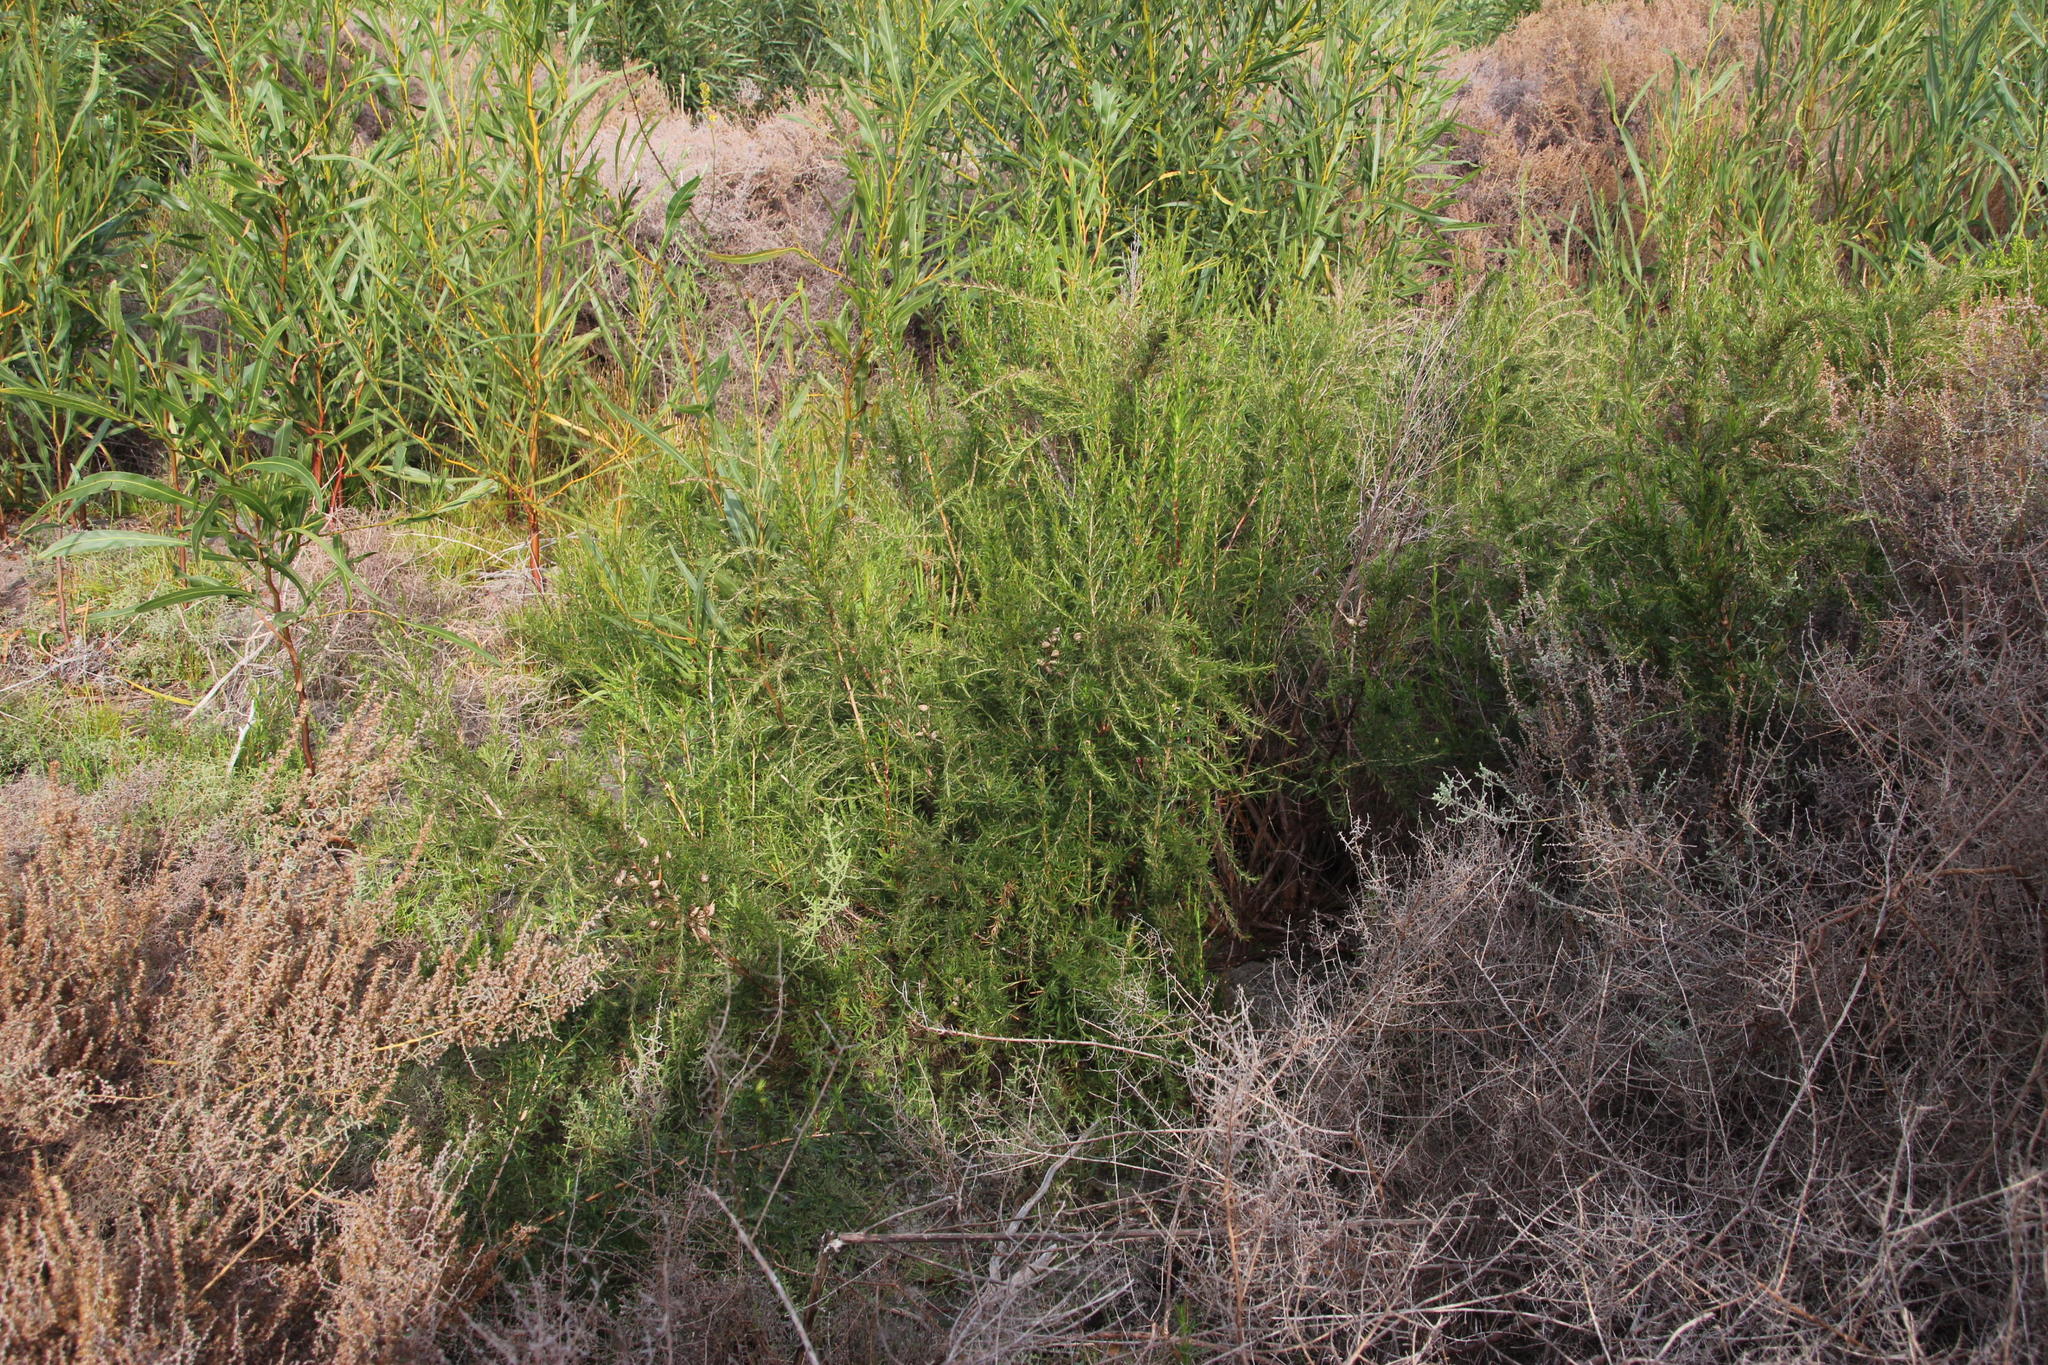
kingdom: Plantae
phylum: Tracheophyta
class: Magnoliopsida
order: Rosales
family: Rosaceae
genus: Cliffortia
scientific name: Cliffortia strobilifera
